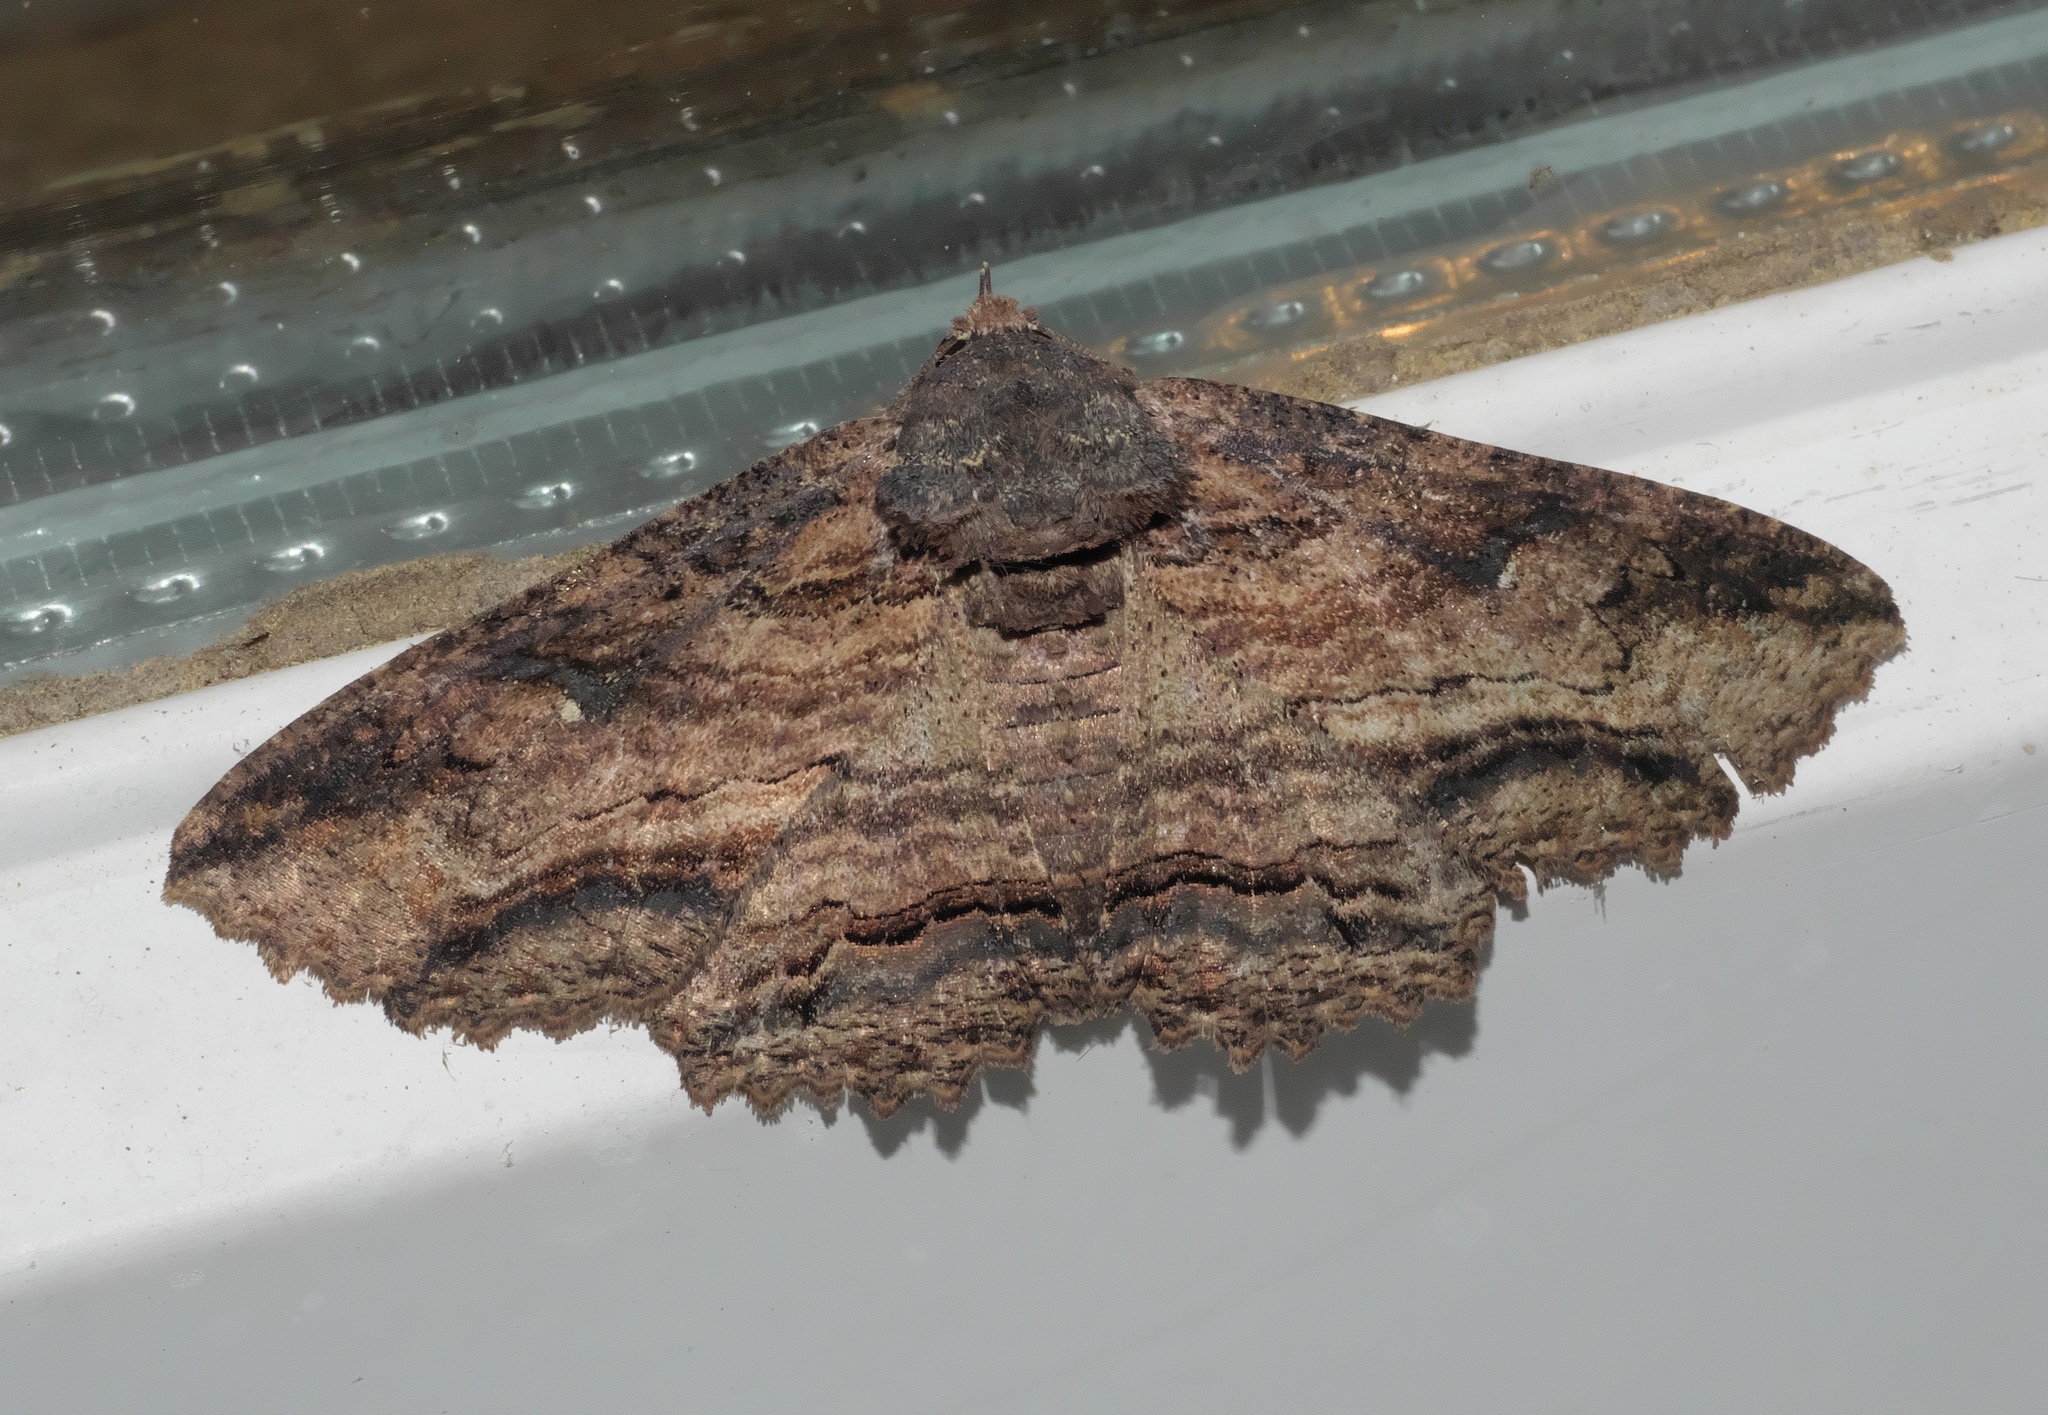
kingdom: Animalia
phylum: Arthropoda
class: Insecta
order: Lepidoptera
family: Erebidae
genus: Zale
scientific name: Zale lunata
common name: Lunate zale moth
